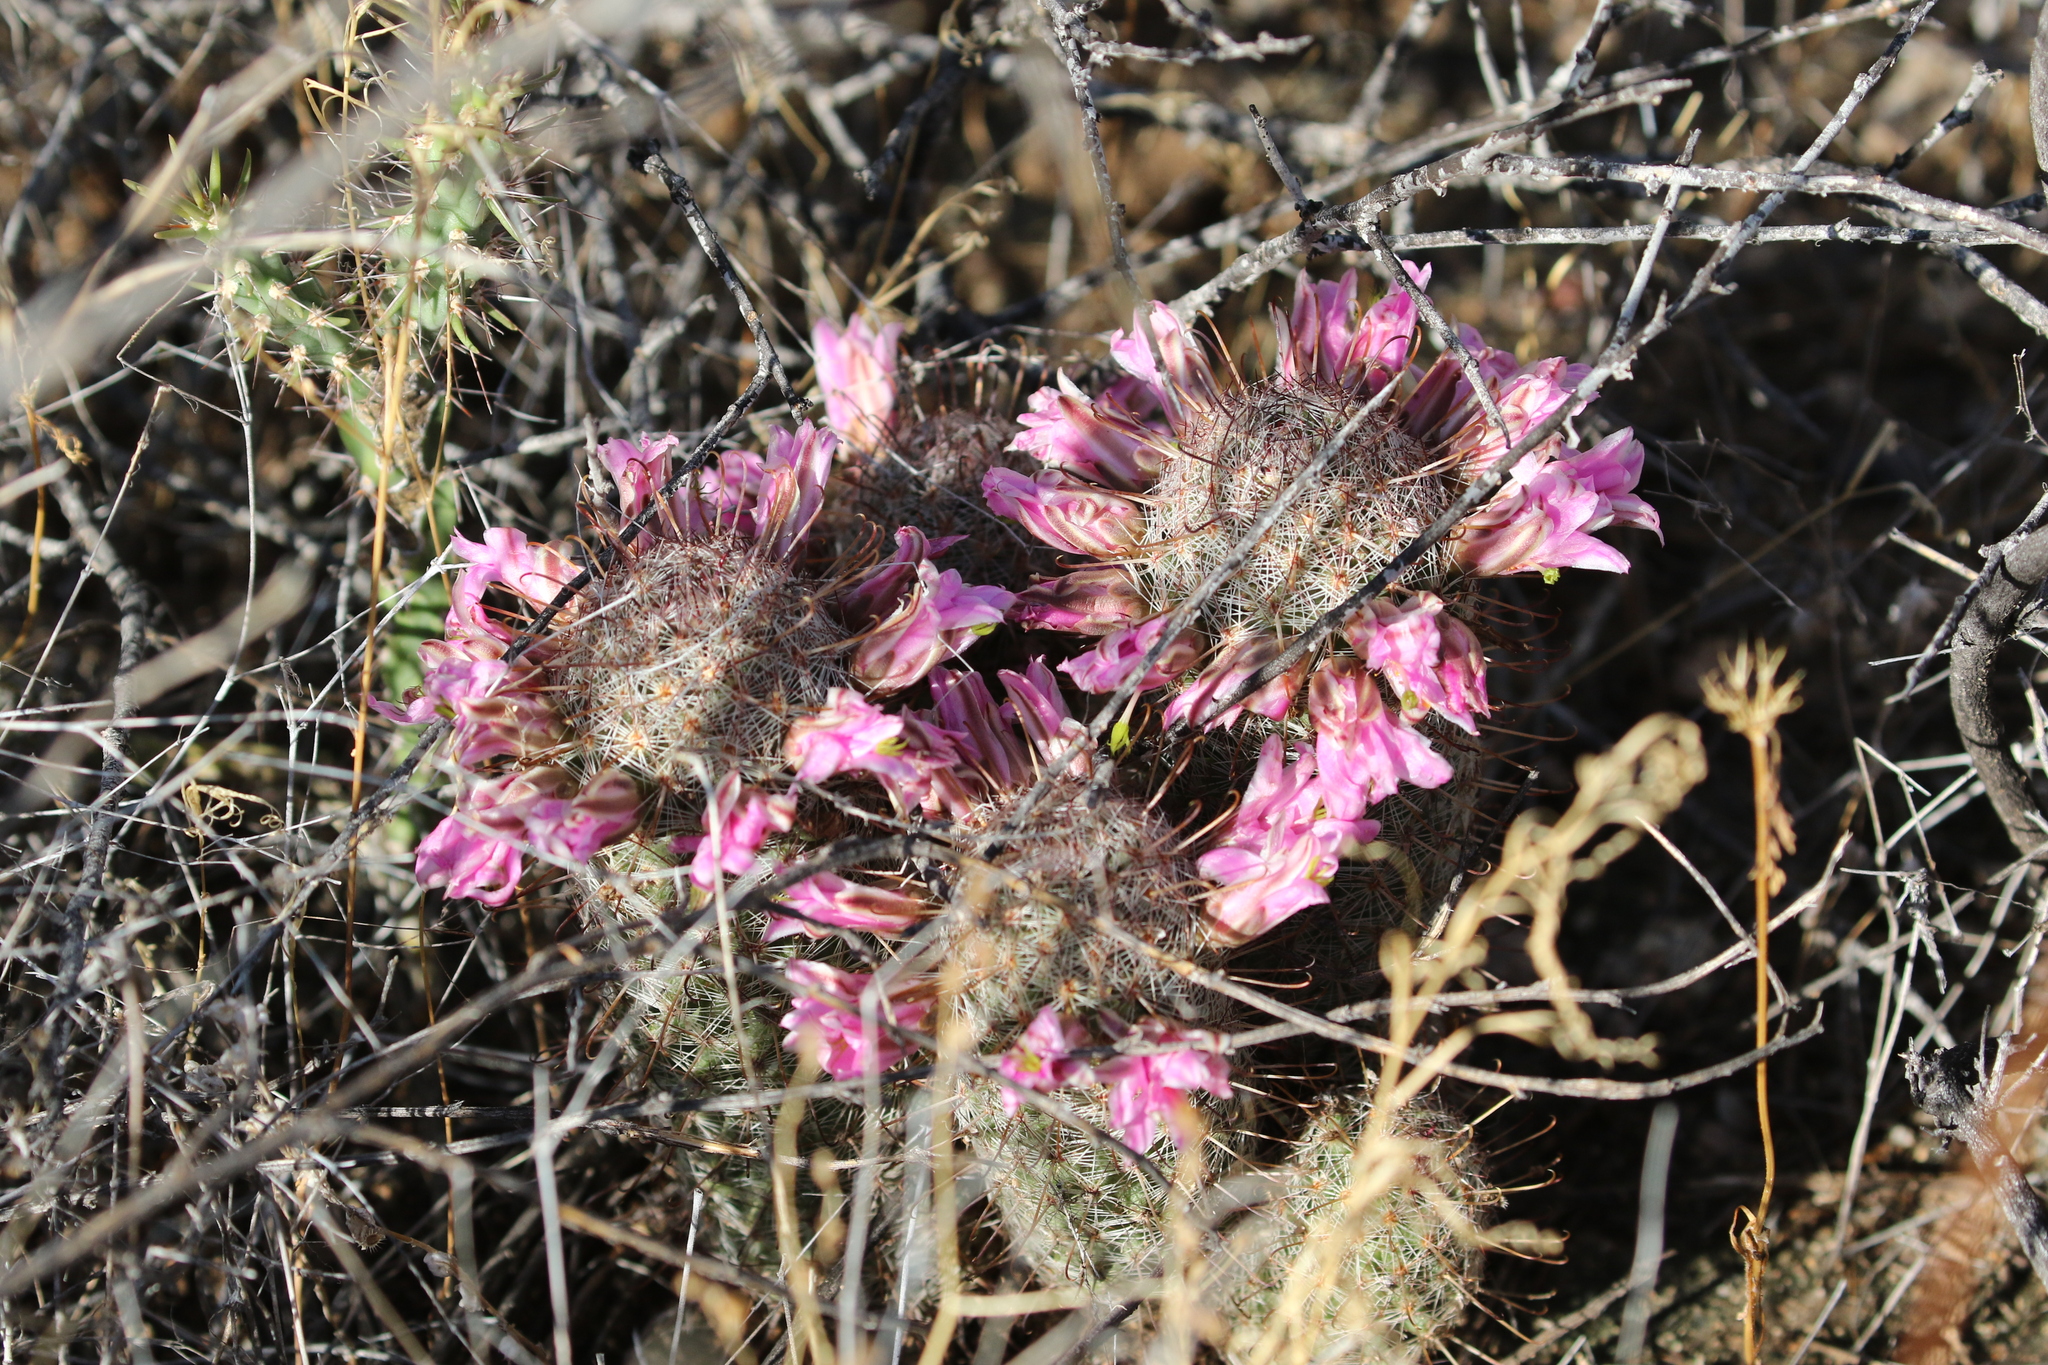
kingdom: Plantae
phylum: Tracheophyta
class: Magnoliopsida
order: Caryophyllales
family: Cactaceae
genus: Cochemiea
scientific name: Cochemiea grahamii
